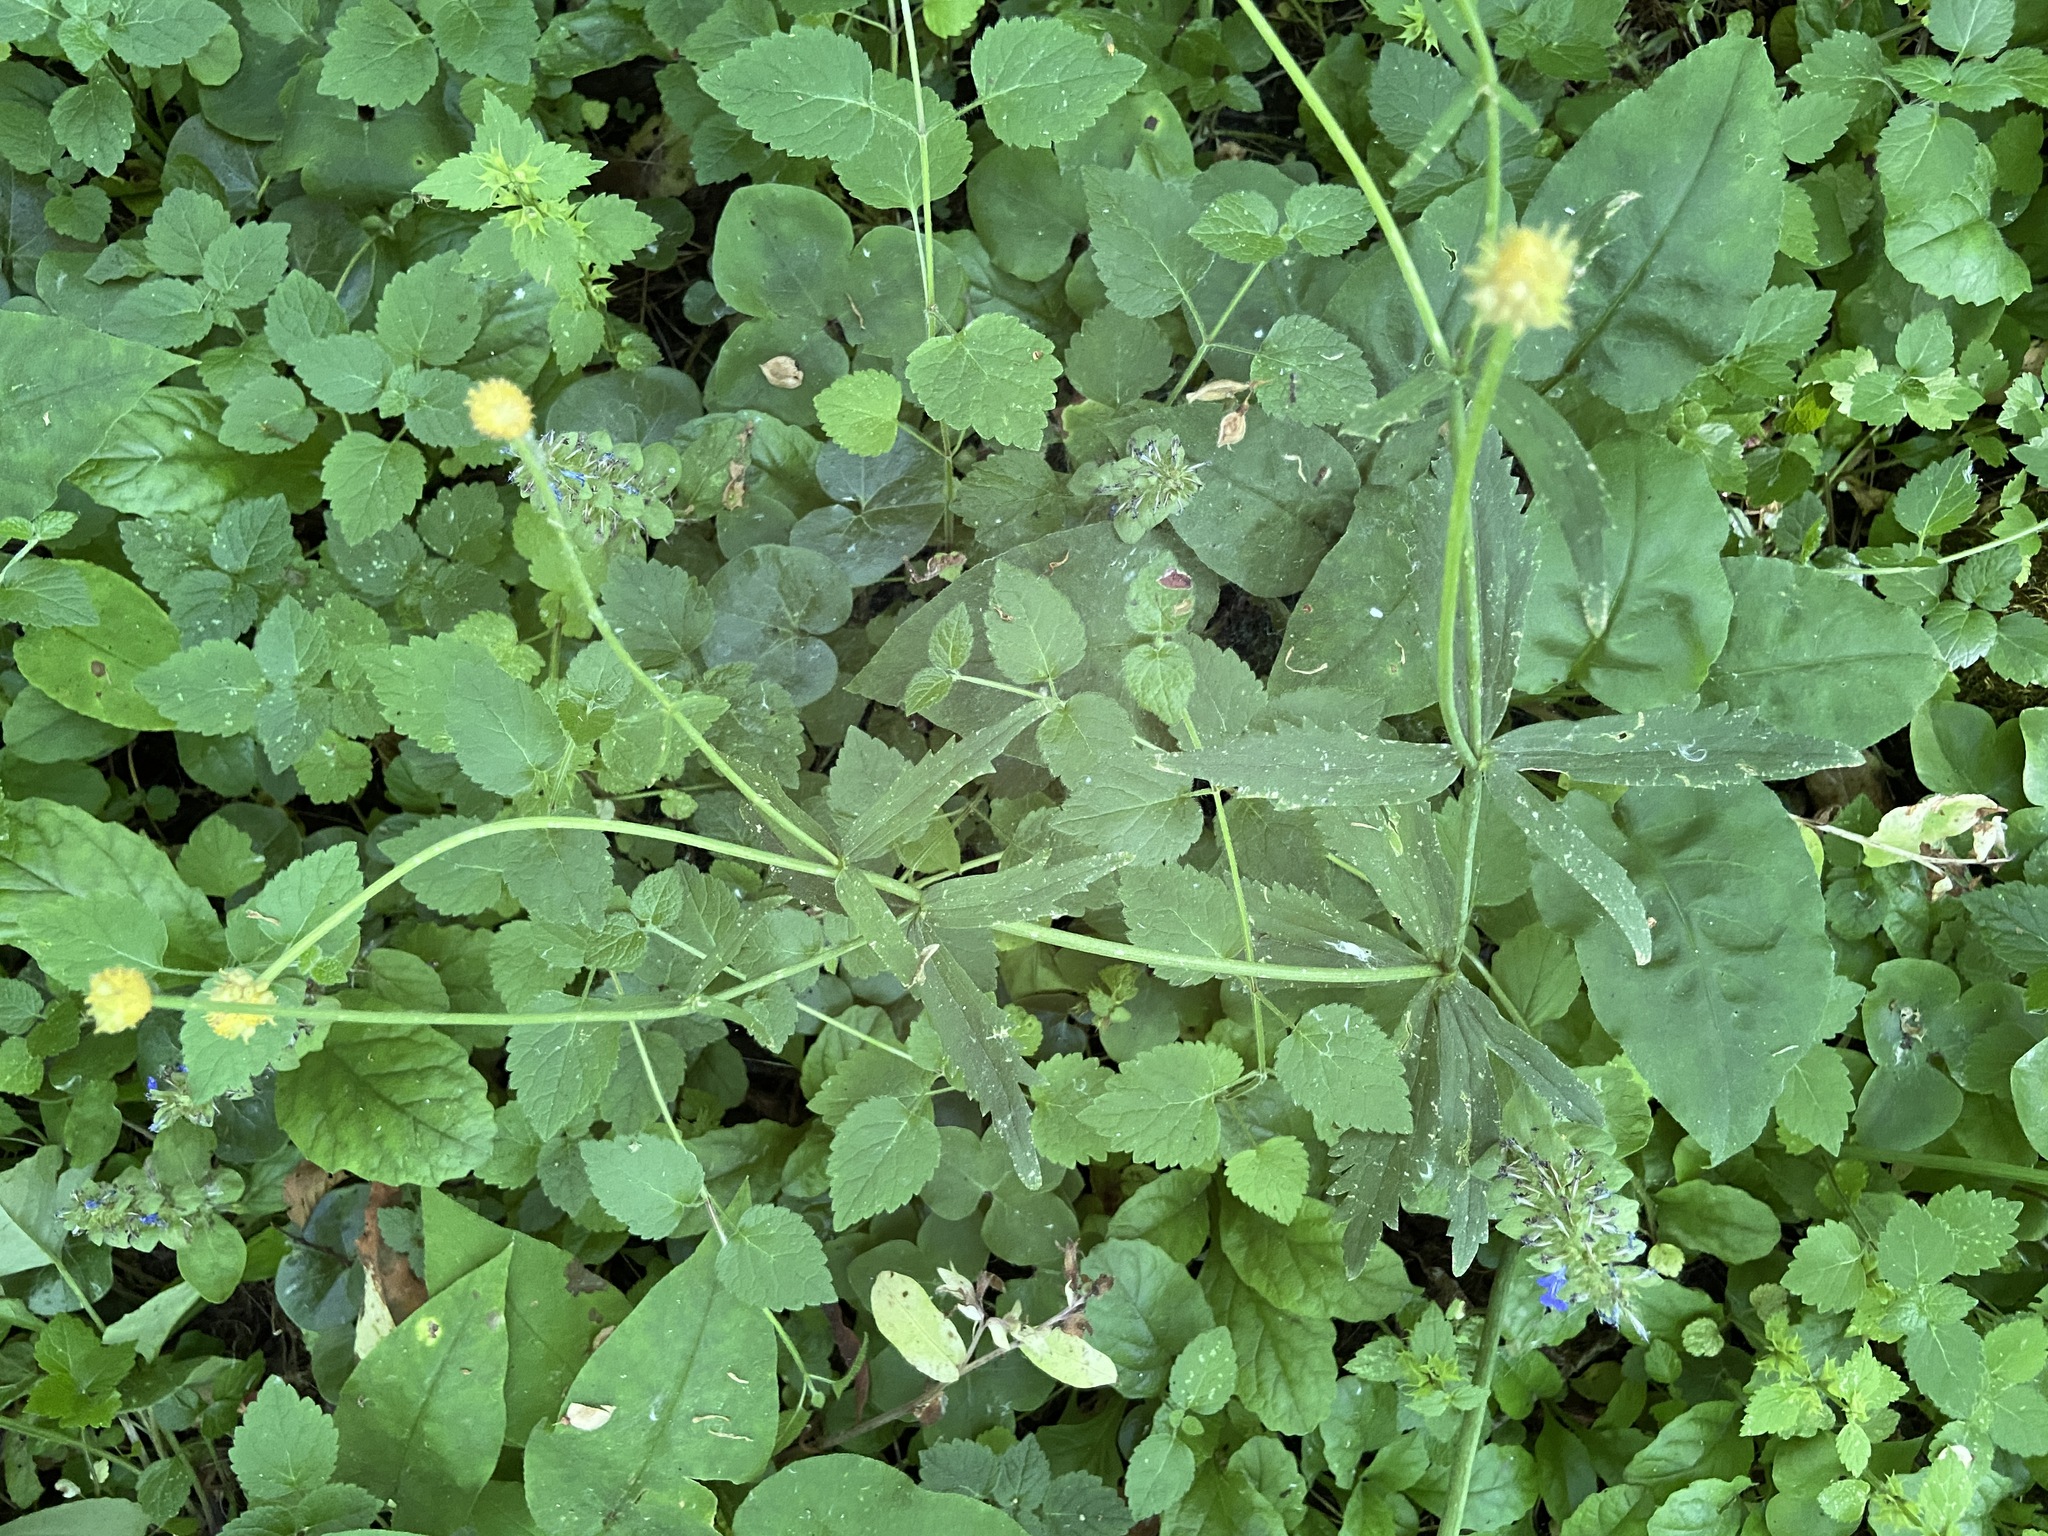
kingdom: Plantae
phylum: Tracheophyta
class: Magnoliopsida
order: Ranunculales
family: Ranunculaceae
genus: Ranunculus
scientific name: Ranunculus cassubicus
